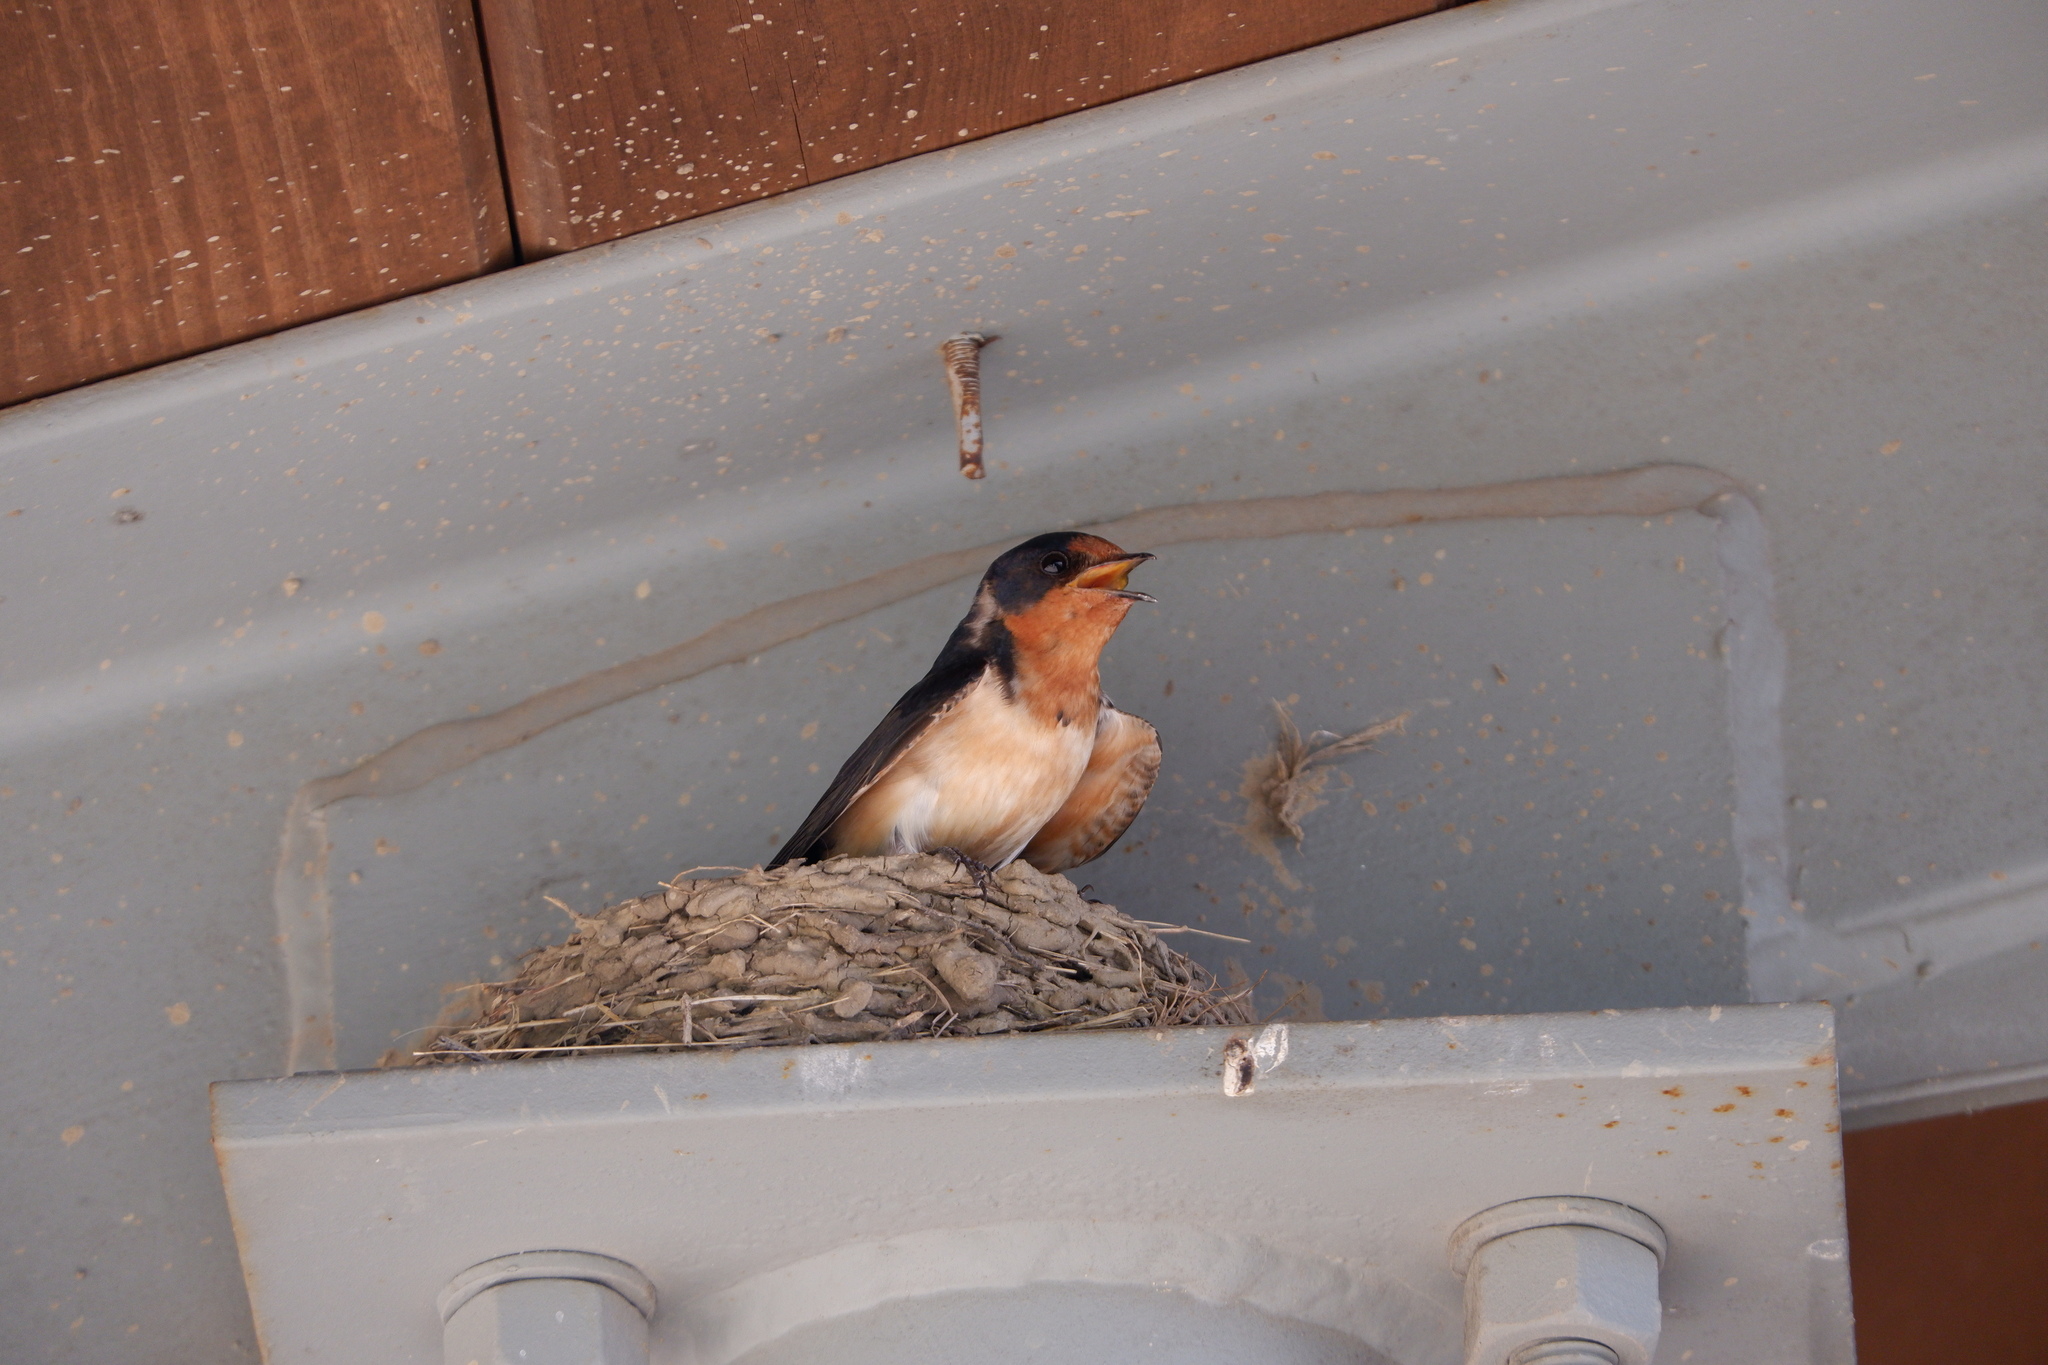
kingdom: Animalia
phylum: Chordata
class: Aves
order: Passeriformes
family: Hirundinidae
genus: Hirundo
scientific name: Hirundo rustica
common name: Barn swallow
